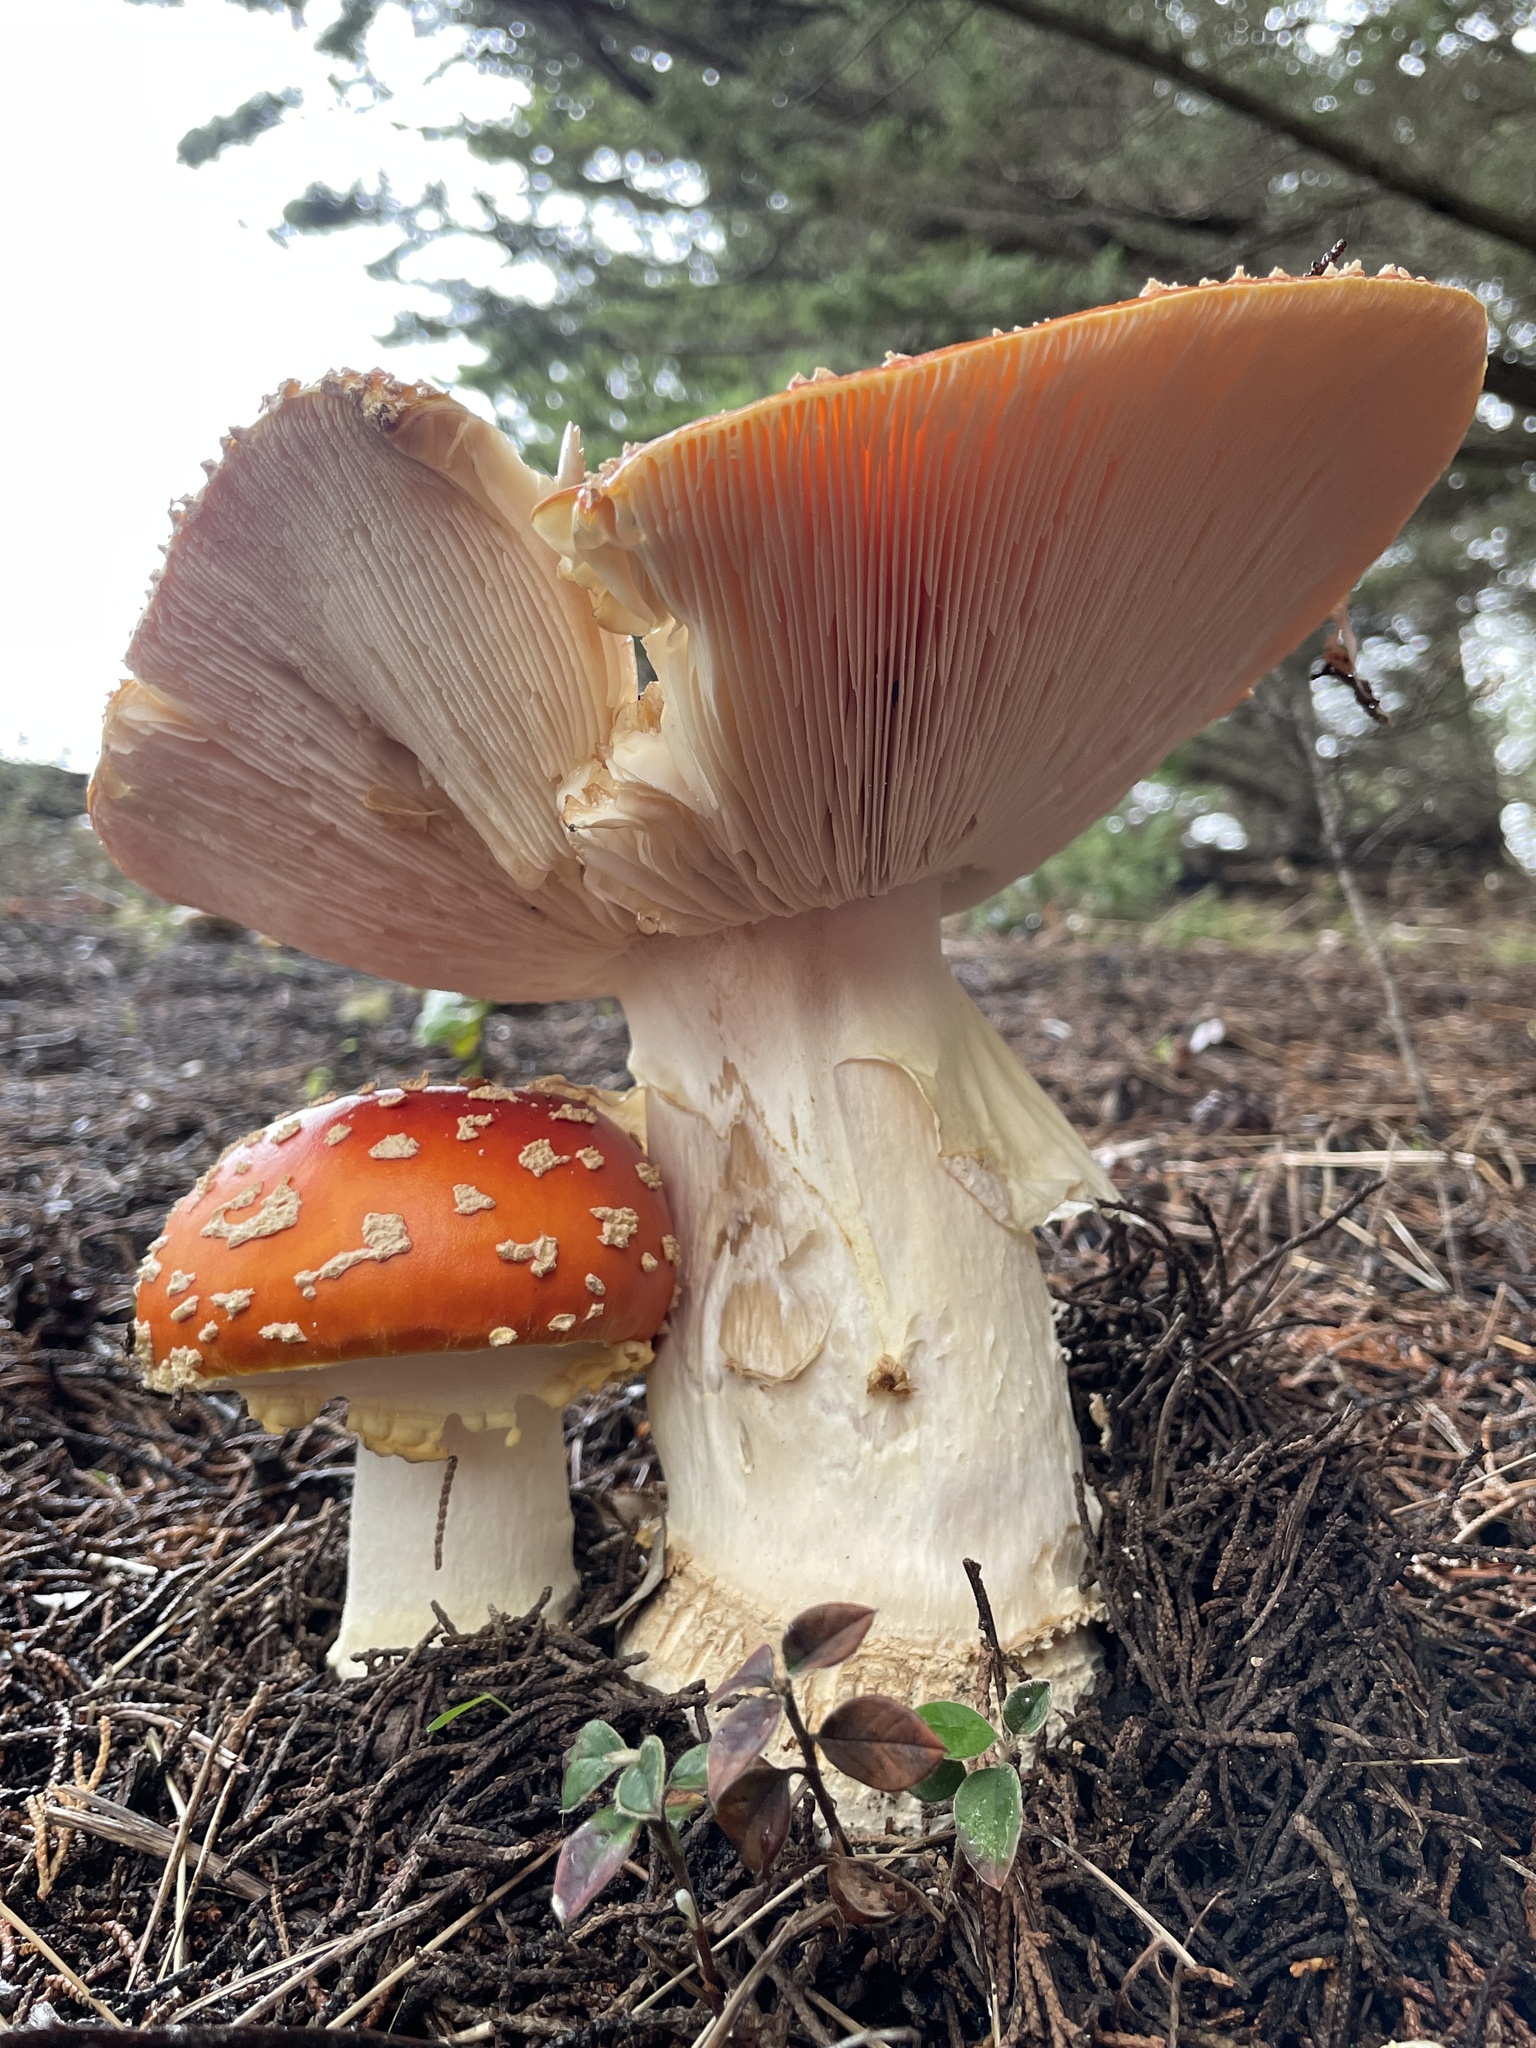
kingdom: Fungi
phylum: Basidiomycota
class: Agaricomycetes
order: Agaricales
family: Amanitaceae
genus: Amanita
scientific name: Amanita muscaria
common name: Fly agaric
